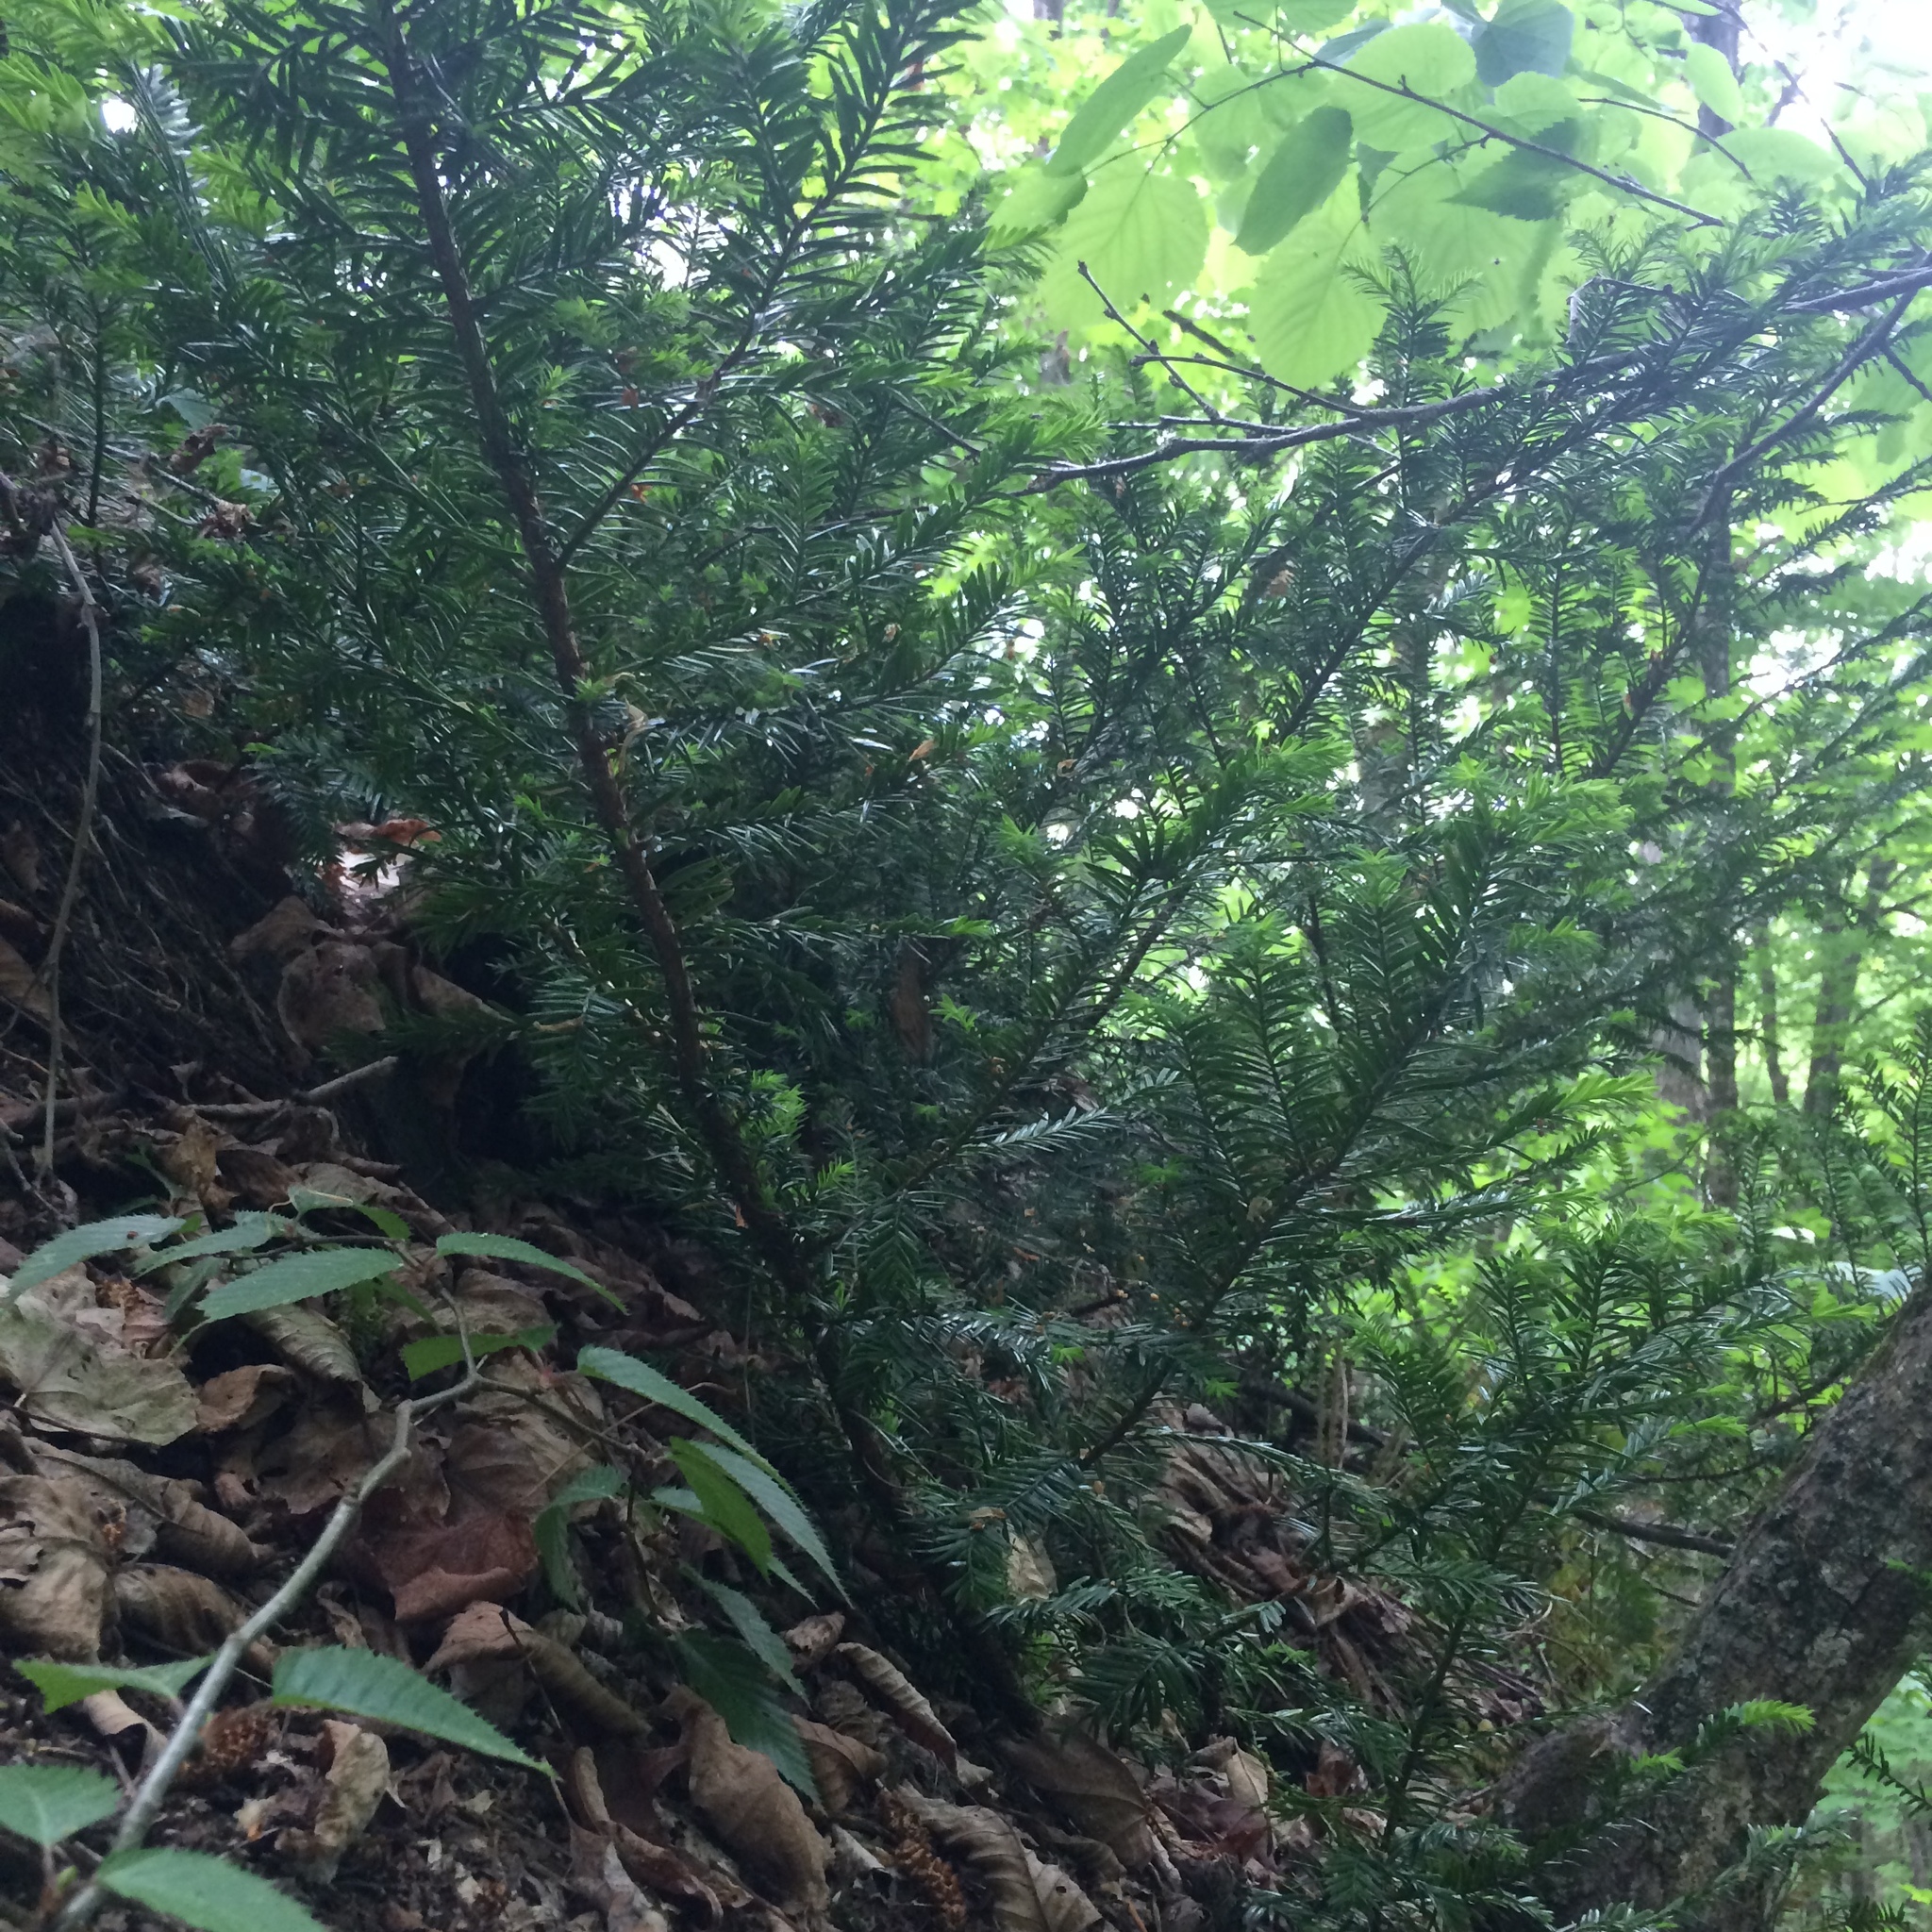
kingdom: Plantae
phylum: Tracheophyta
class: Pinopsida
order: Pinales
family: Taxaceae
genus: Taxus
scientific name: Taxus canadensis
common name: American yew
